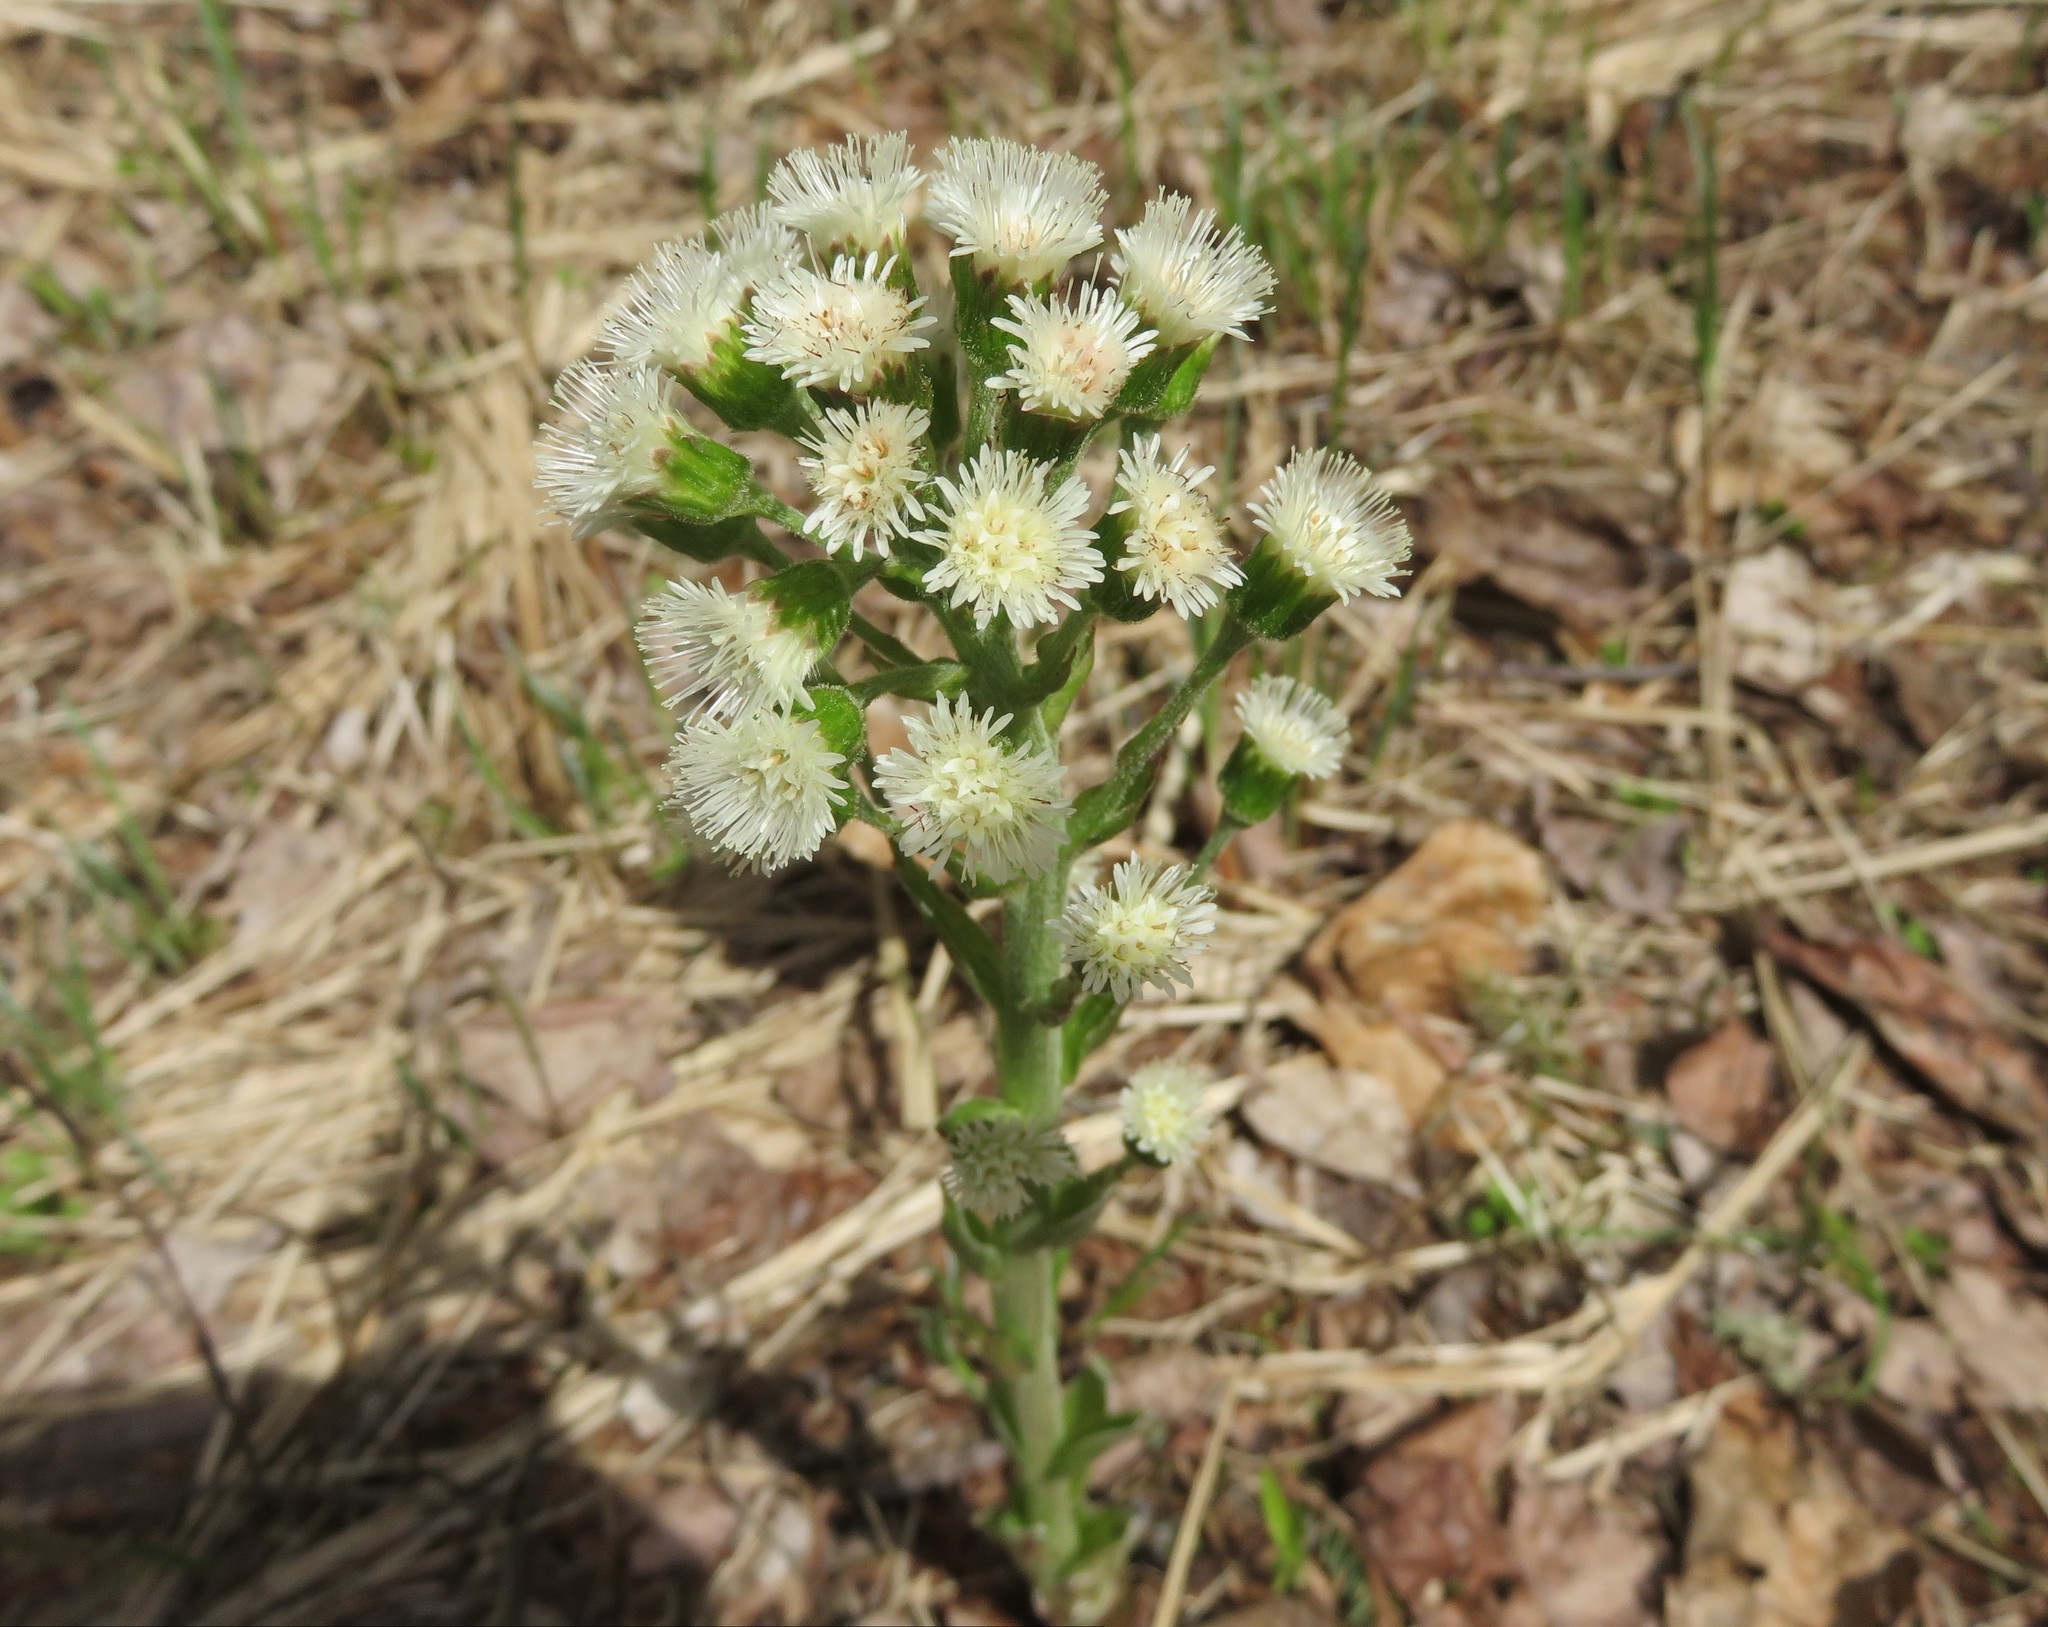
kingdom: Plantae
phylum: Tracheophyta
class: Magnoliopsida
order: Asterales
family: Asteraceae
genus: Petasites
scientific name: Petasites frigidus
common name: Arctic butterbur
